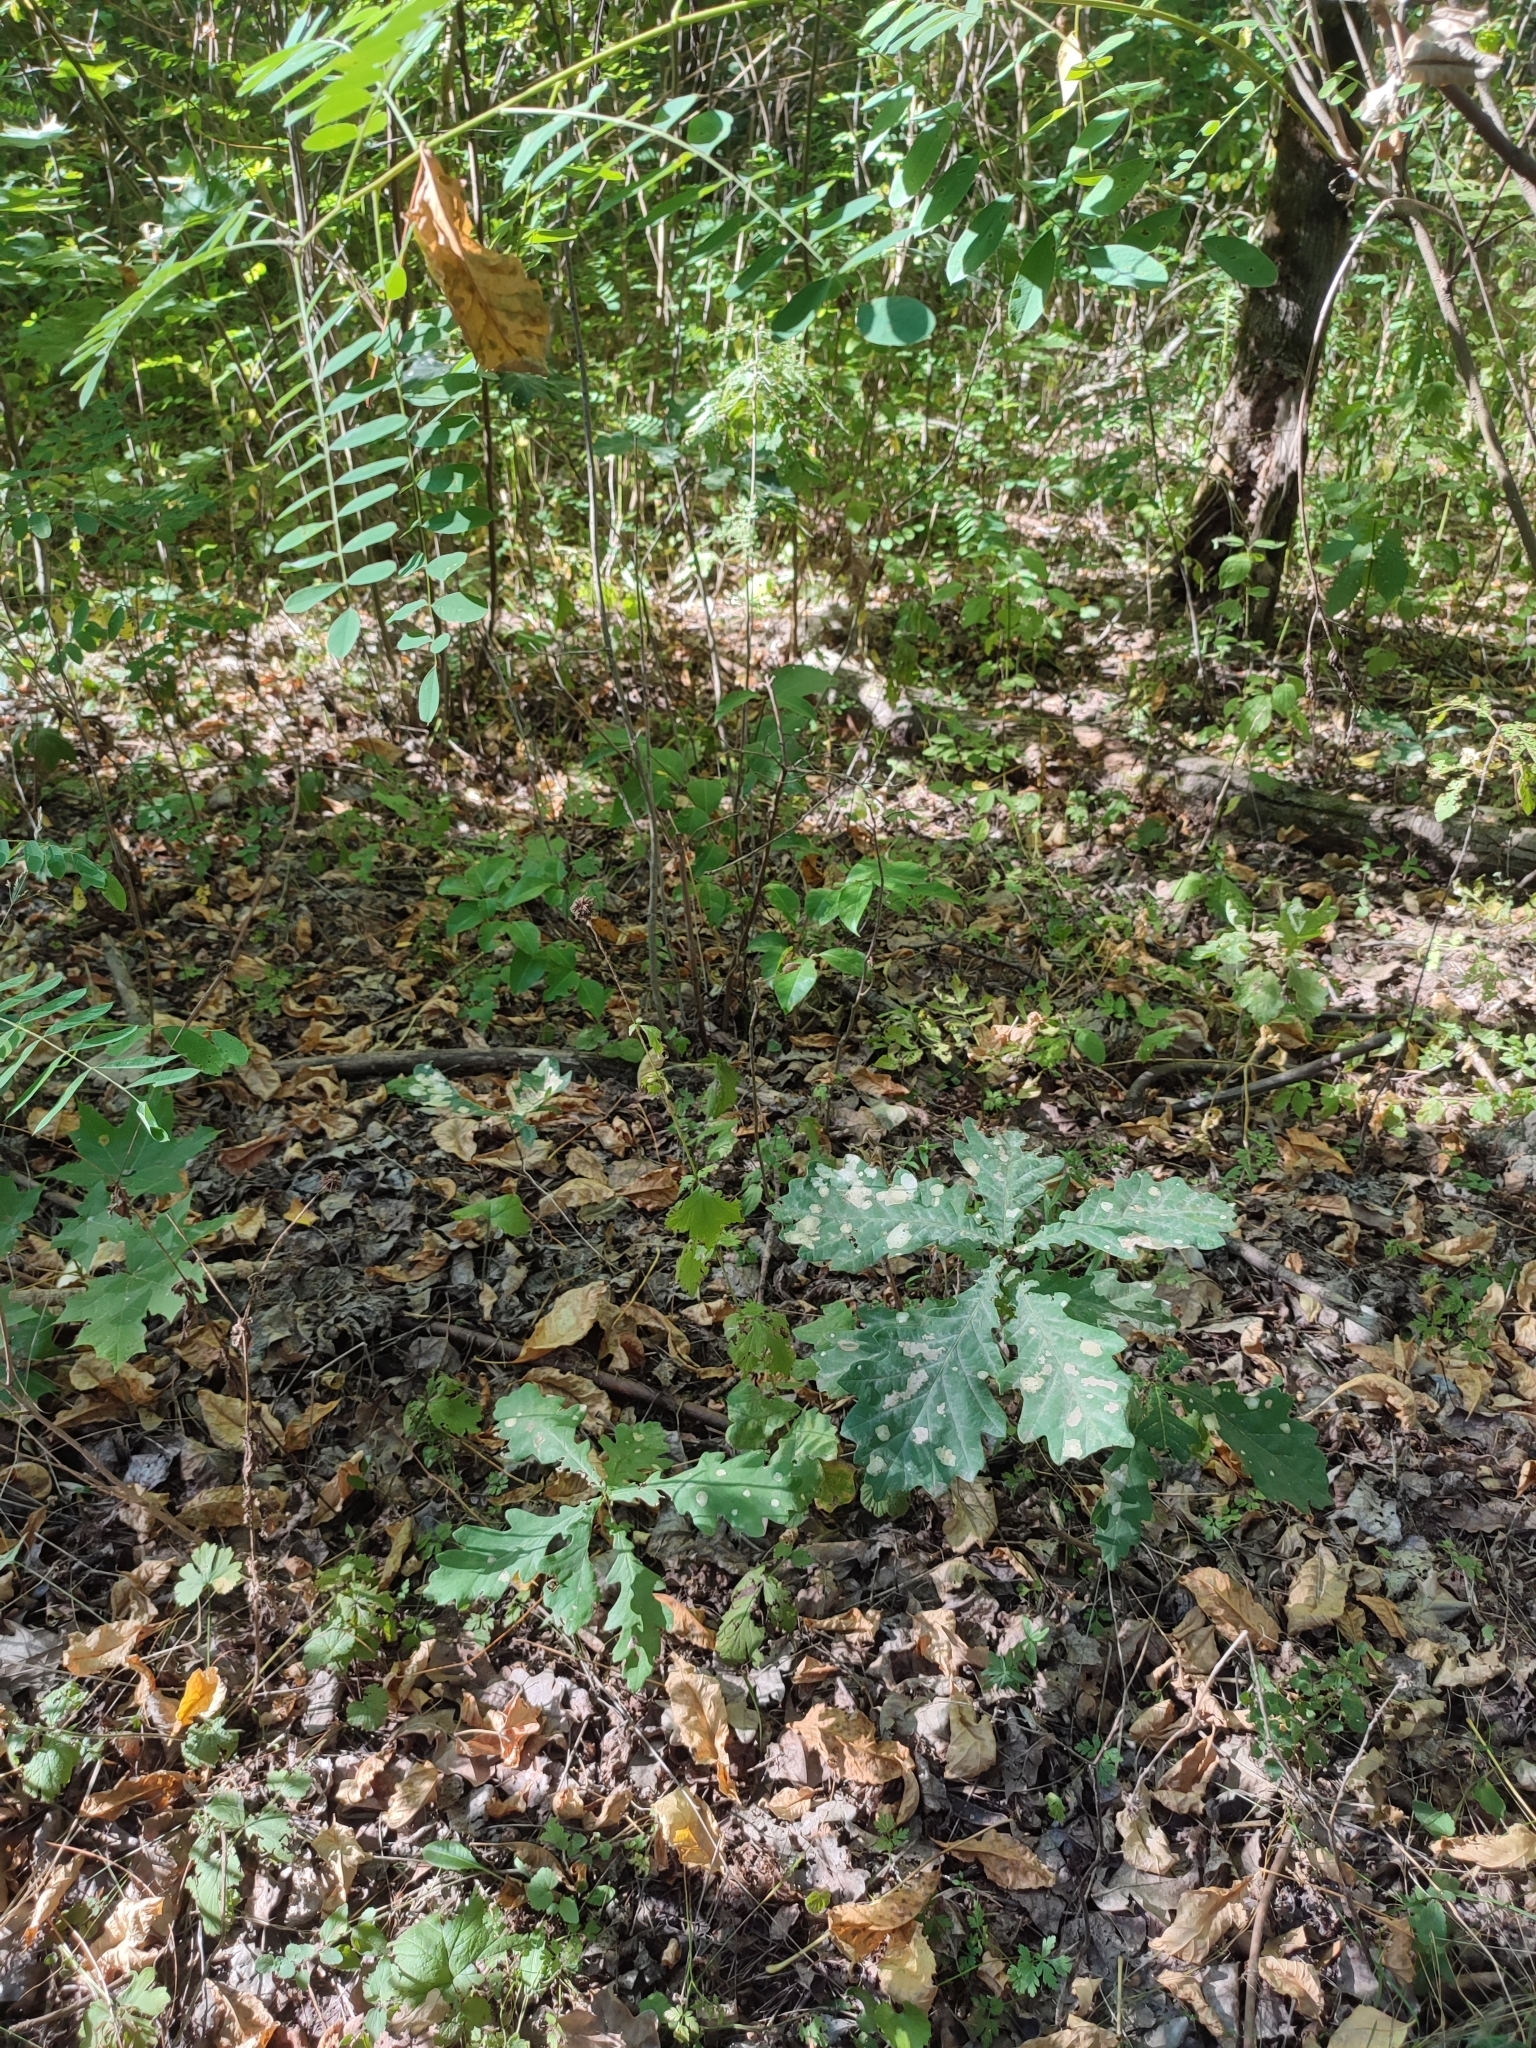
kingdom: Plantae
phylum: Tracheophyta
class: Magnoliopsida
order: Fagales
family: Fagaceae
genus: Quercus
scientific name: Quercus robur
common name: Pedunculate oak
